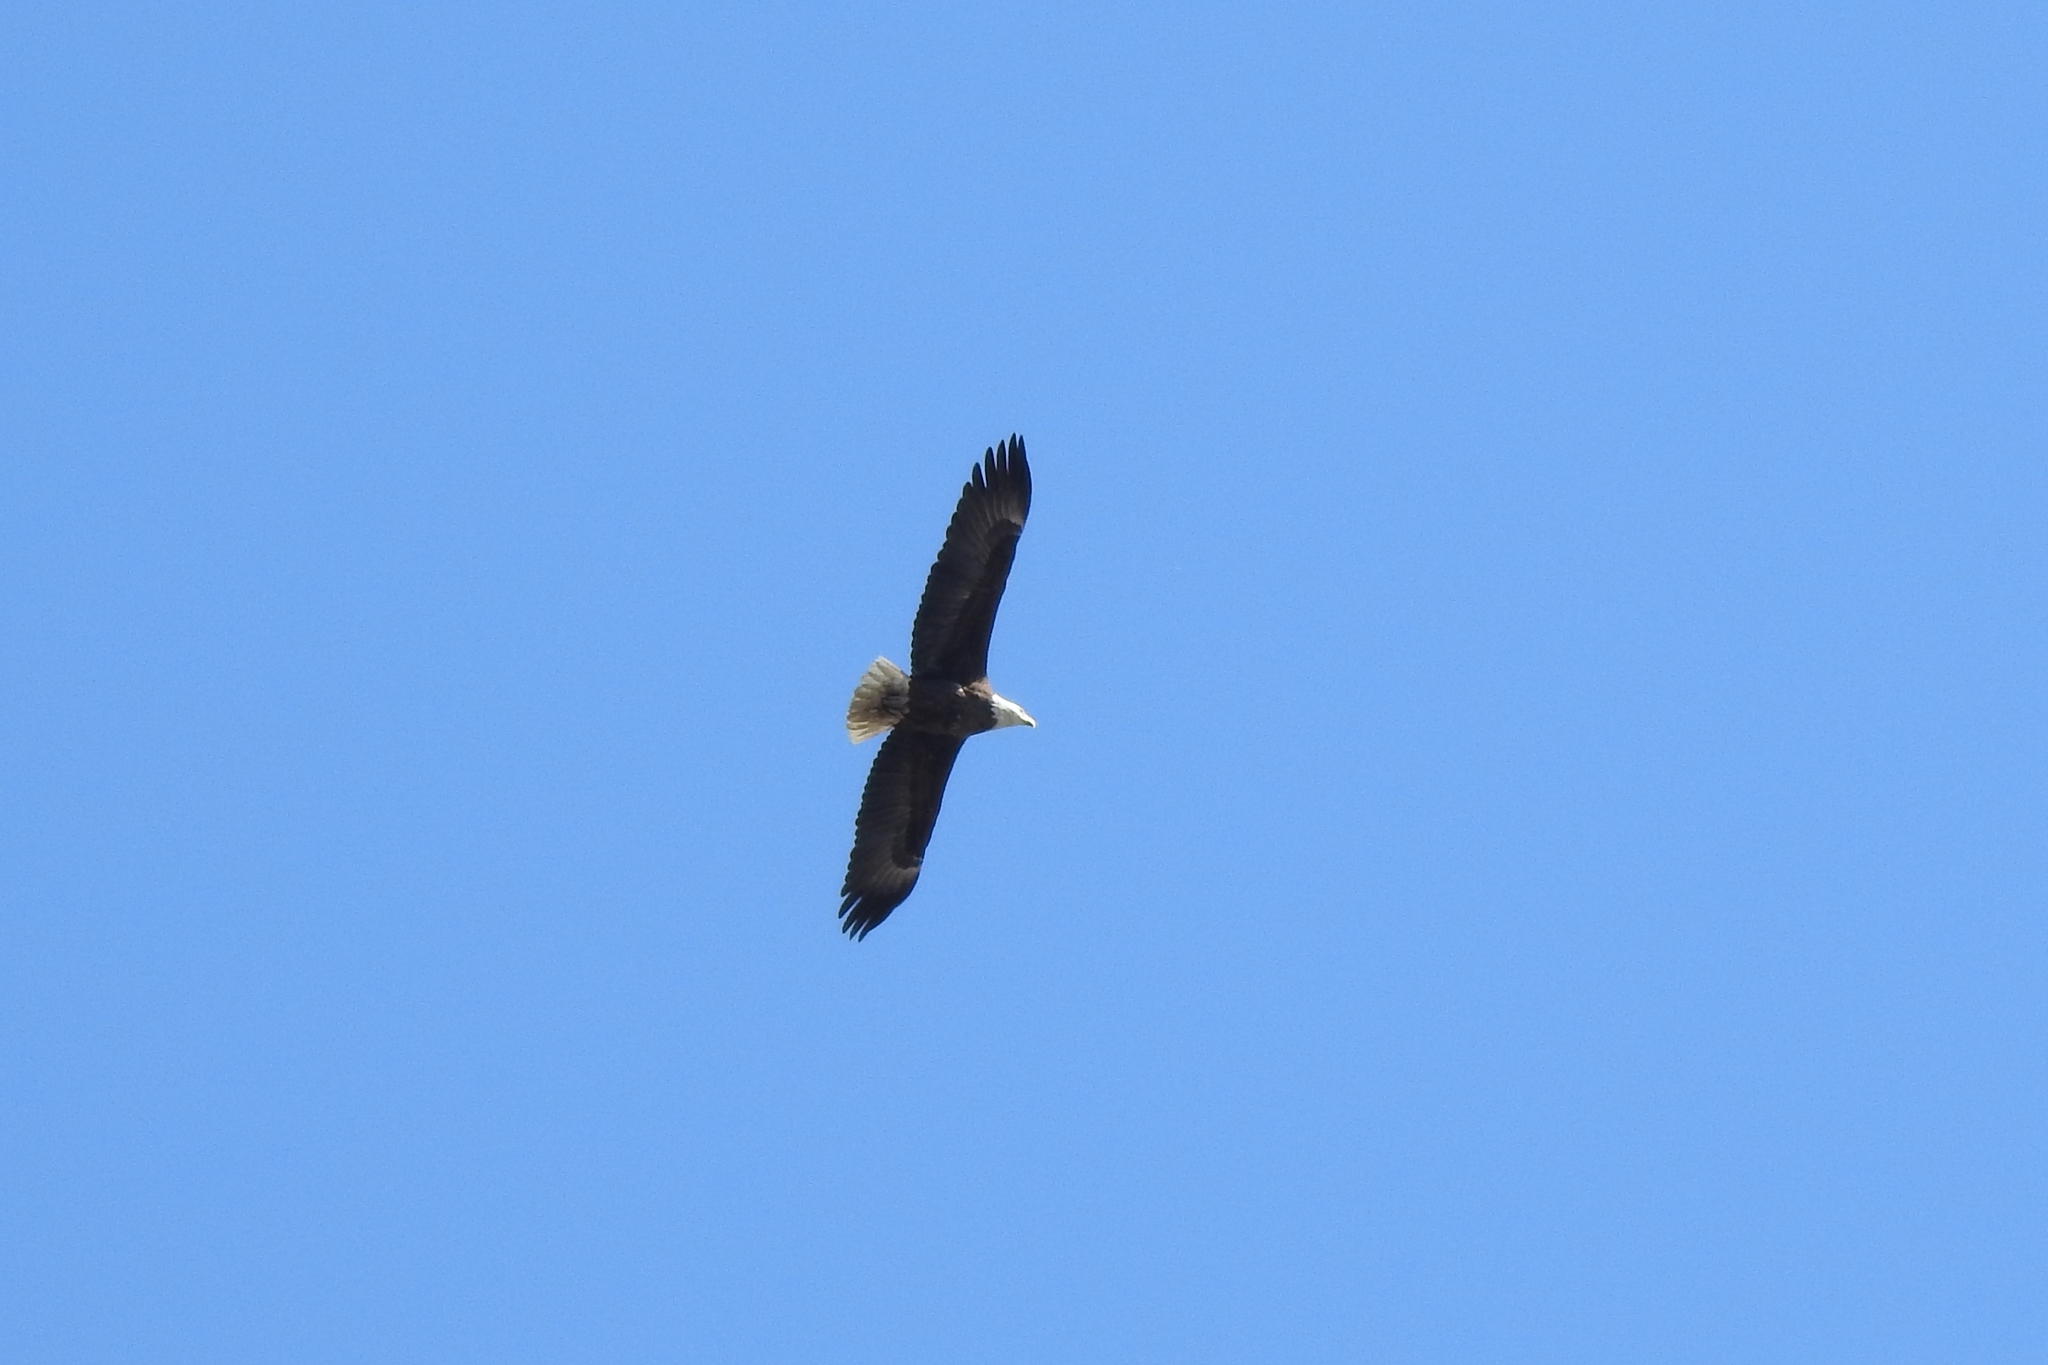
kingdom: Animalia
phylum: Chordata
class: Aves
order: Accipitriformes
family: Accipitridae
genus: Haliaeetus
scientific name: Haliaeetus leucocephalus
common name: Bald eagle
